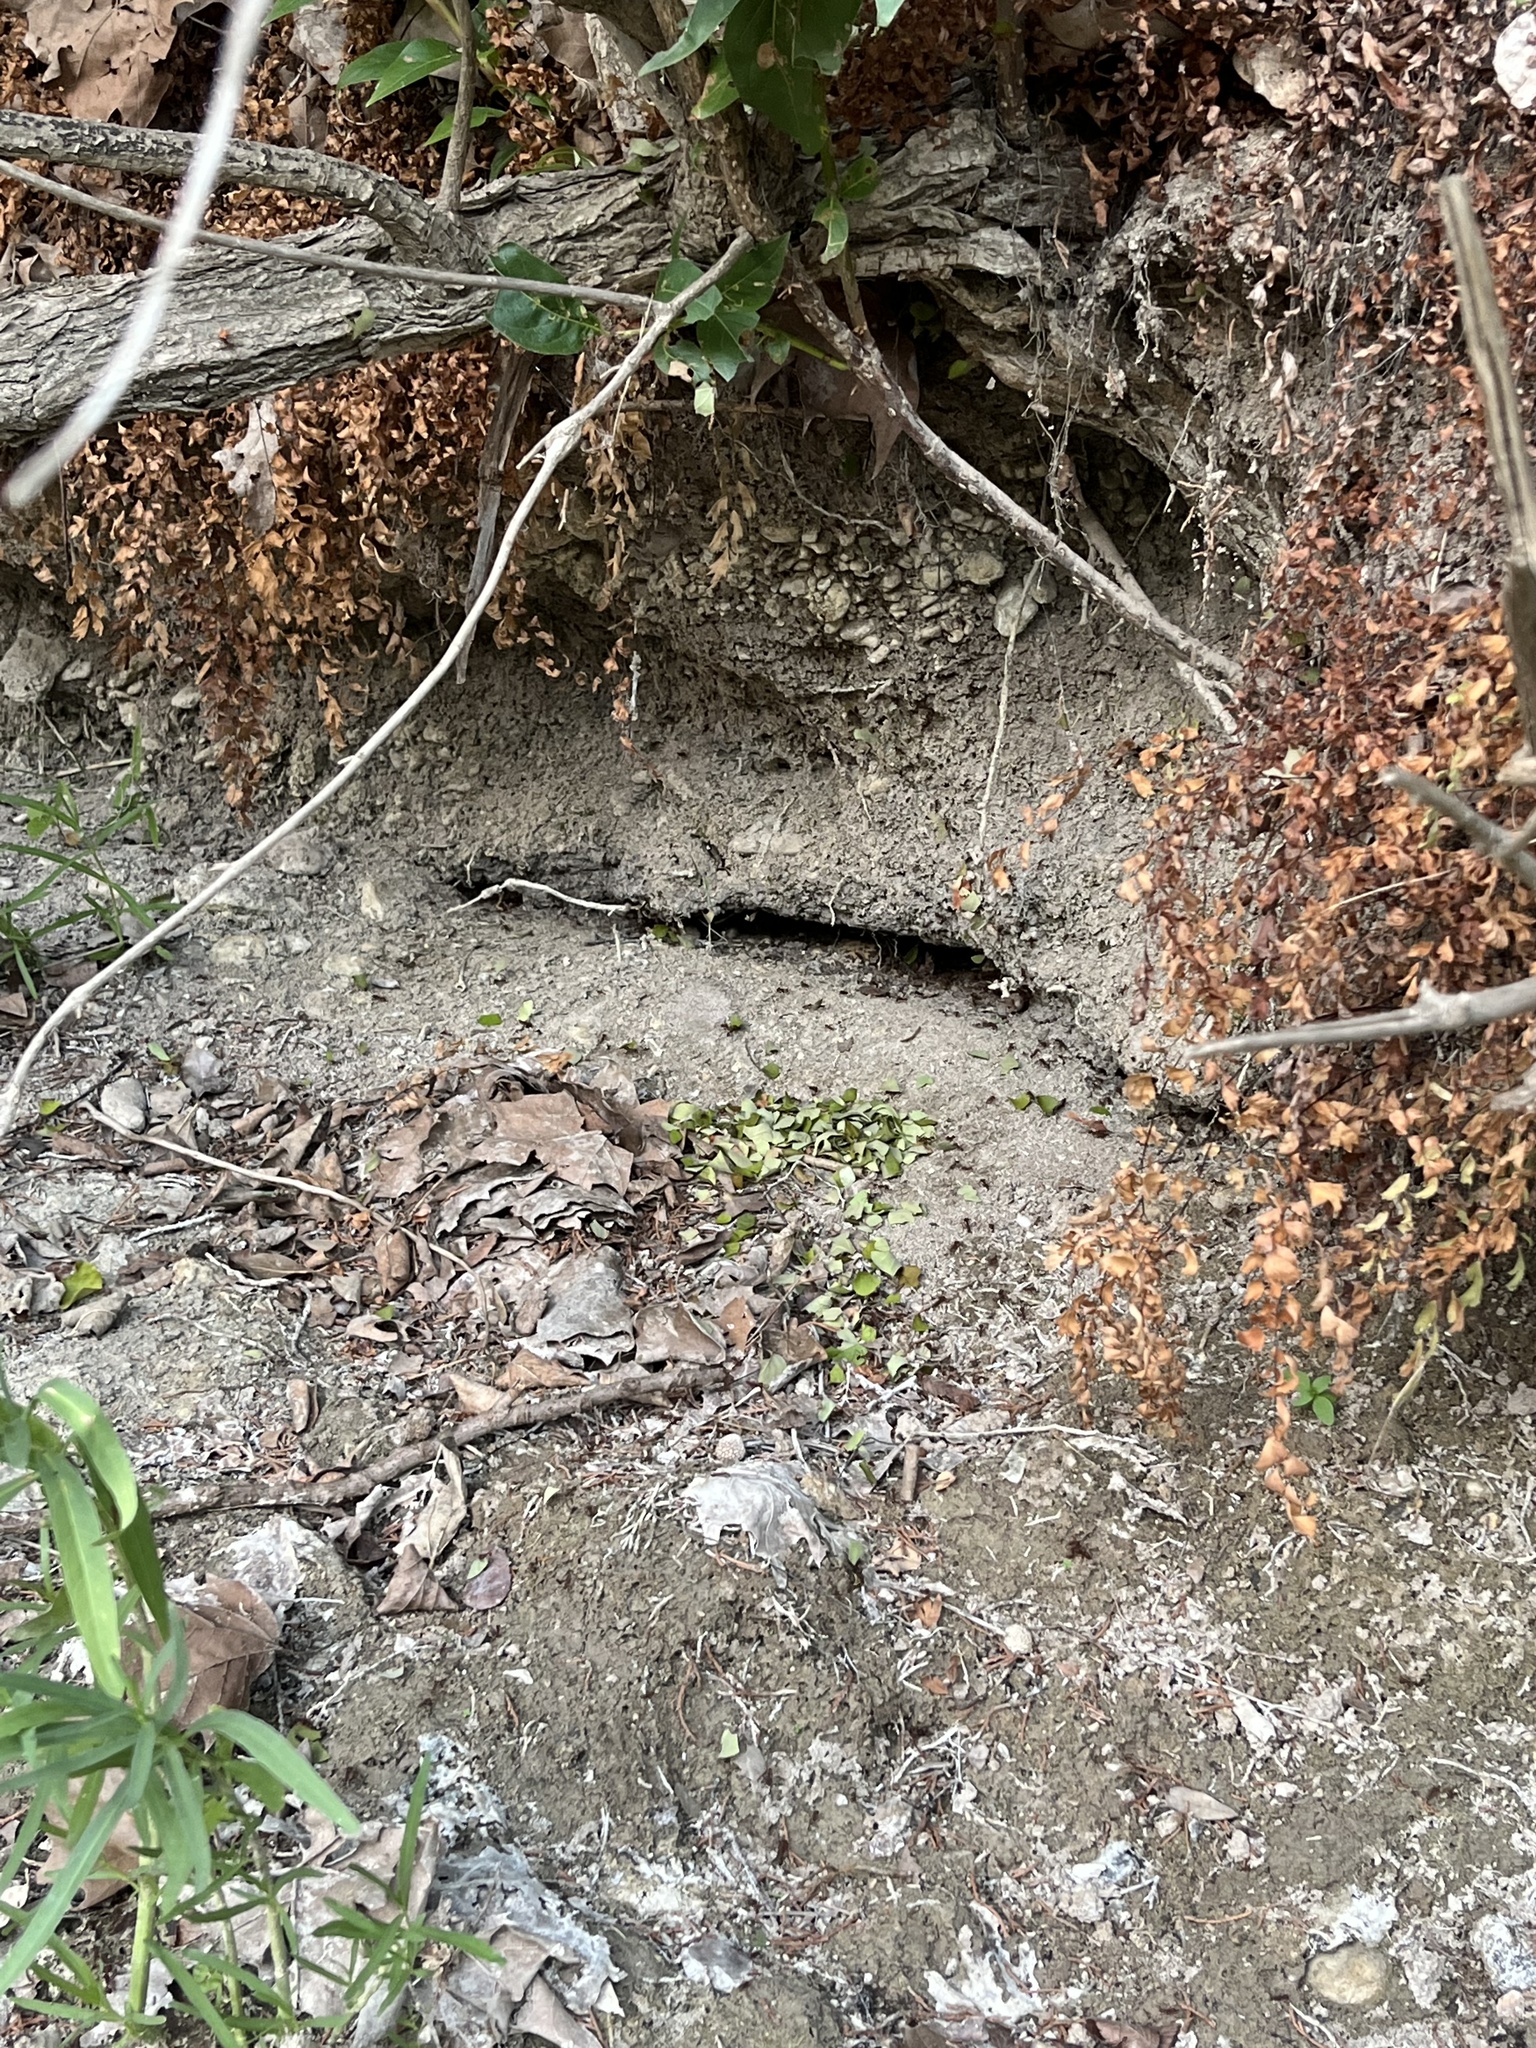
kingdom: Animalia
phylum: Arthropoda
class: Insecta
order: Hymenoptera
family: Formicidae
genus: Atta
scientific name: Atta texana
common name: Texas leafcutting ant
